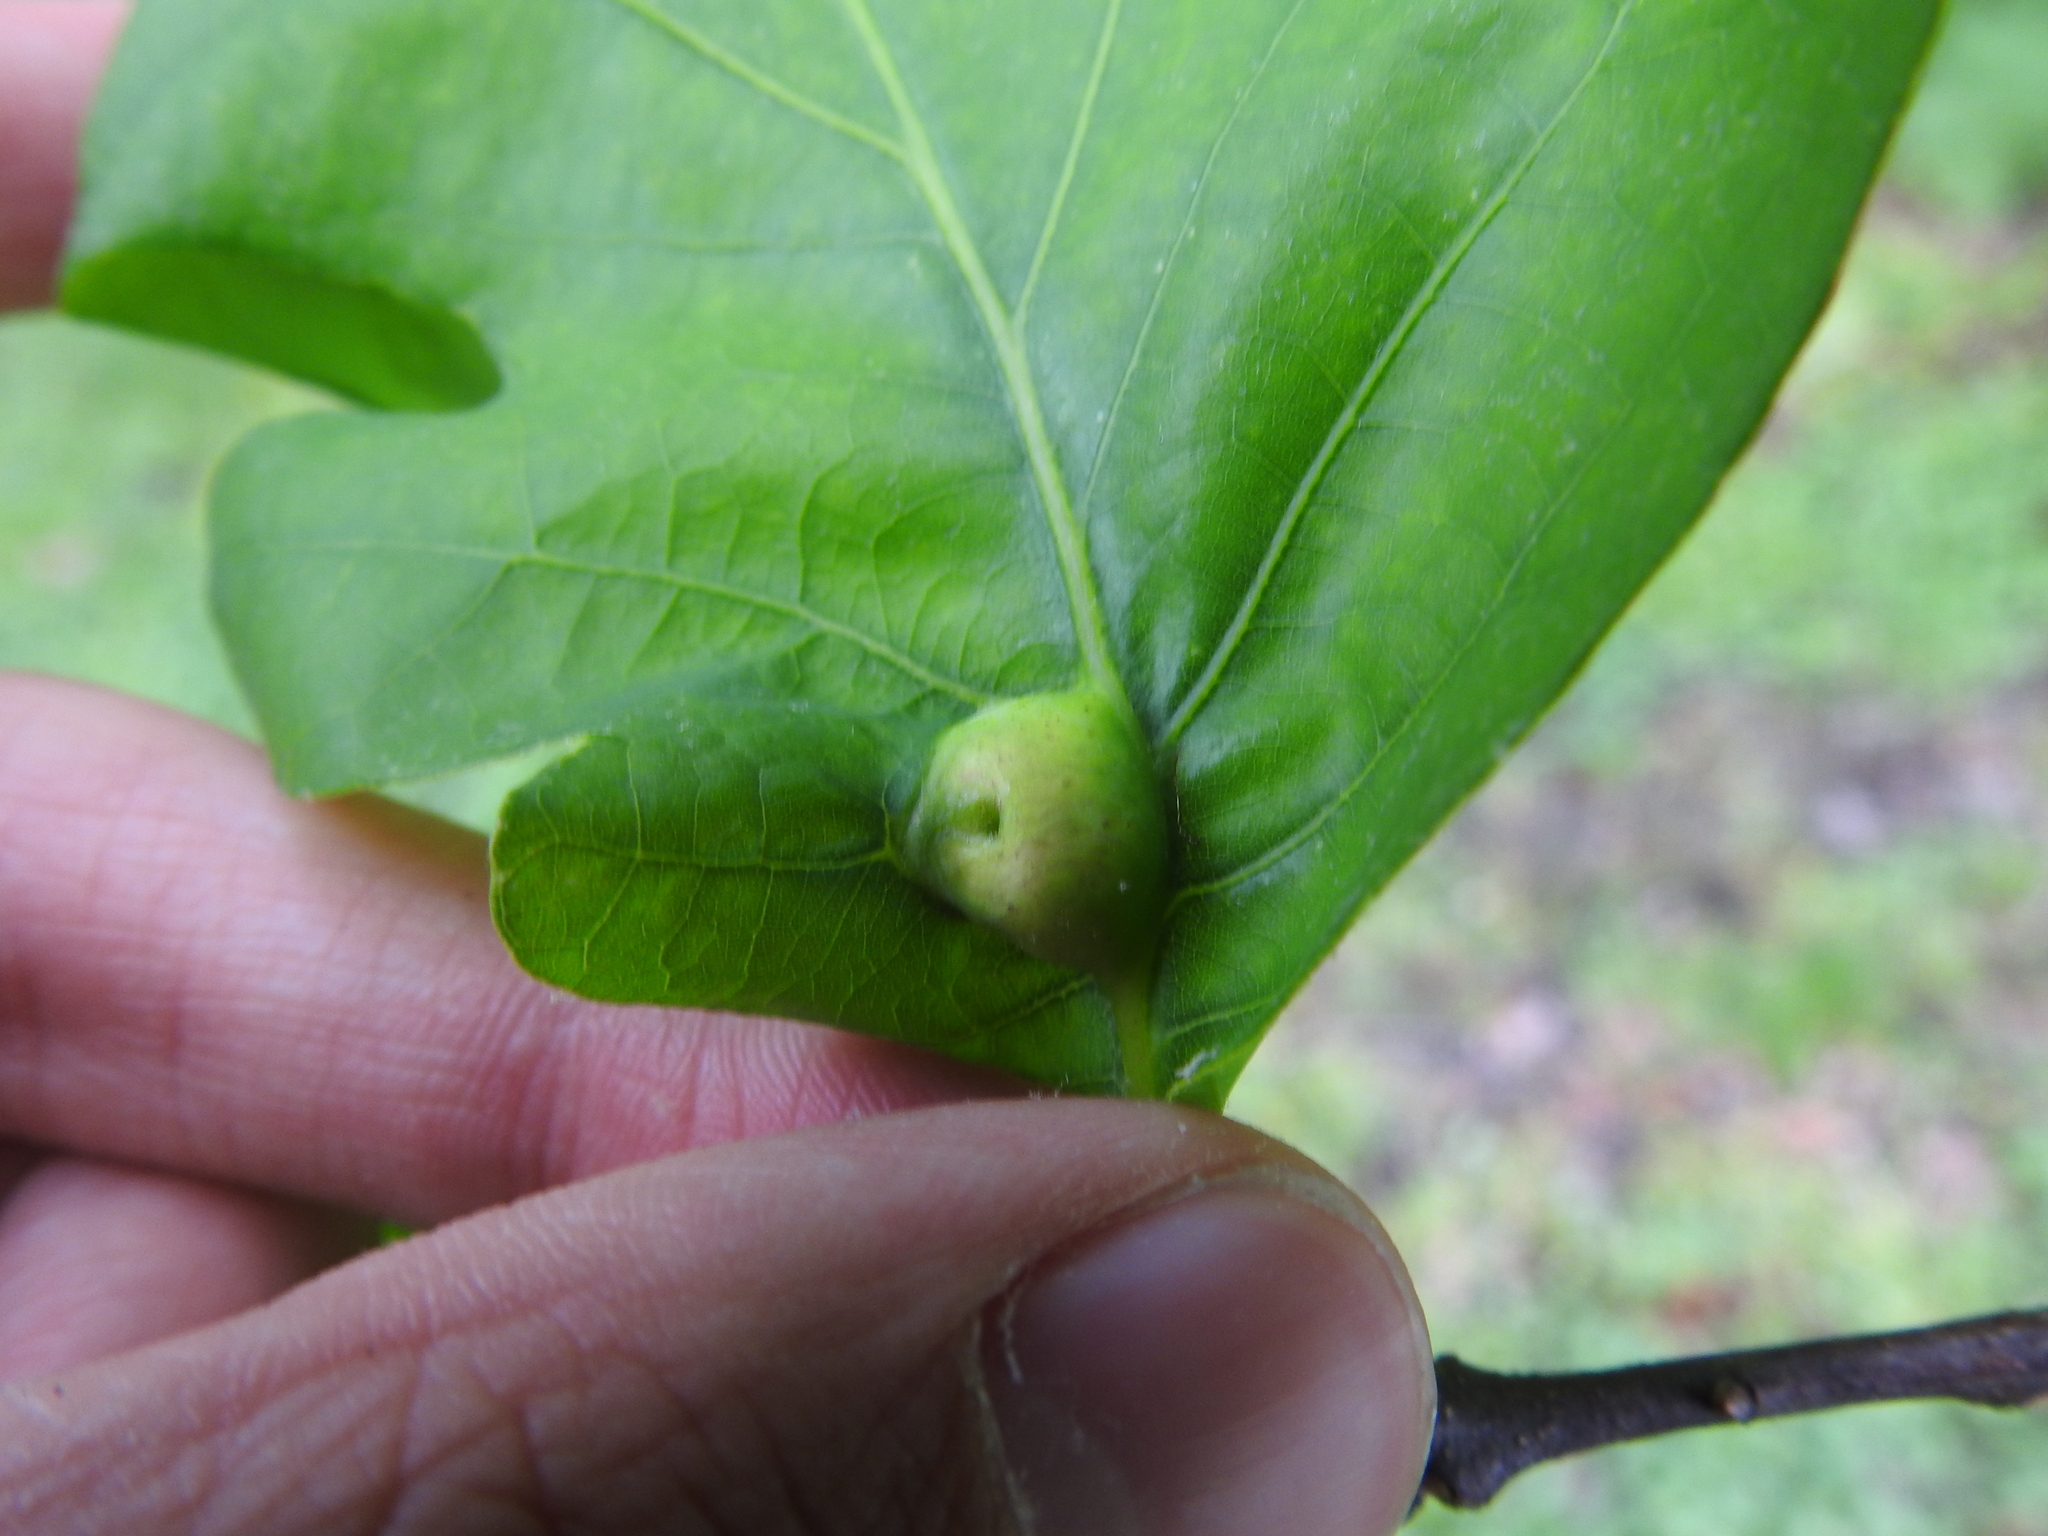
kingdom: Animalia
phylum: Arthropoda
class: Insecta
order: Hymenoptera
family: Cynipidae
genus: Andricus
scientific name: Andricus
